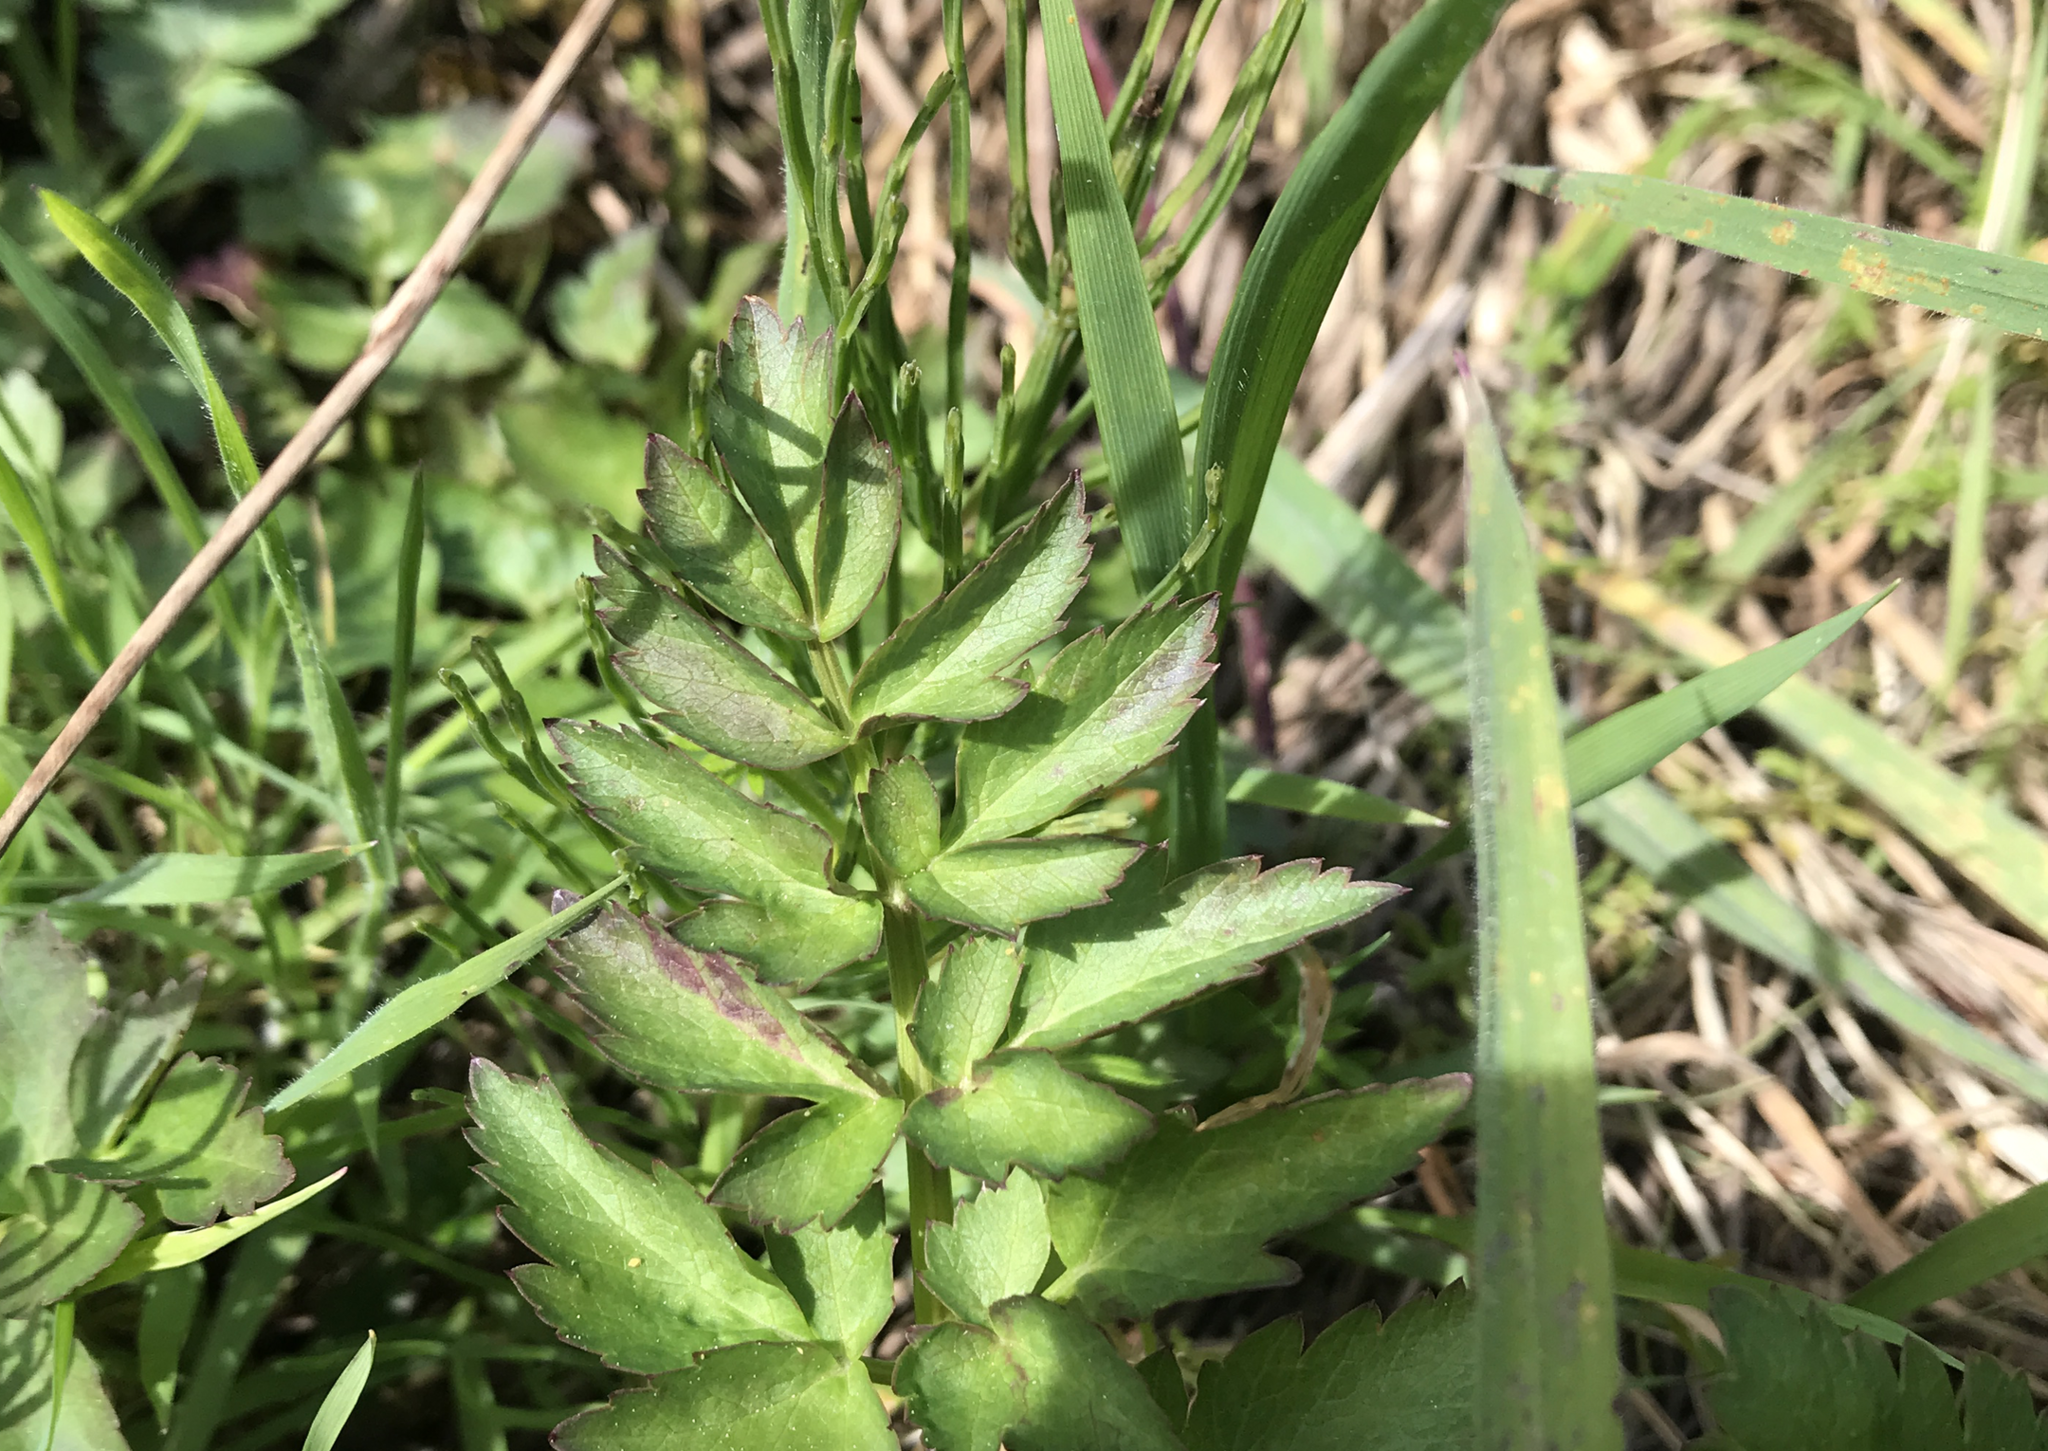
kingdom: Plantae
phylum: Tracheophyta
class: Magnoliopsida
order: Apiales
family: Apiaceae
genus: Oenanthe
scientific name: Oenanthe sarmentosa
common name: American water-parsley
